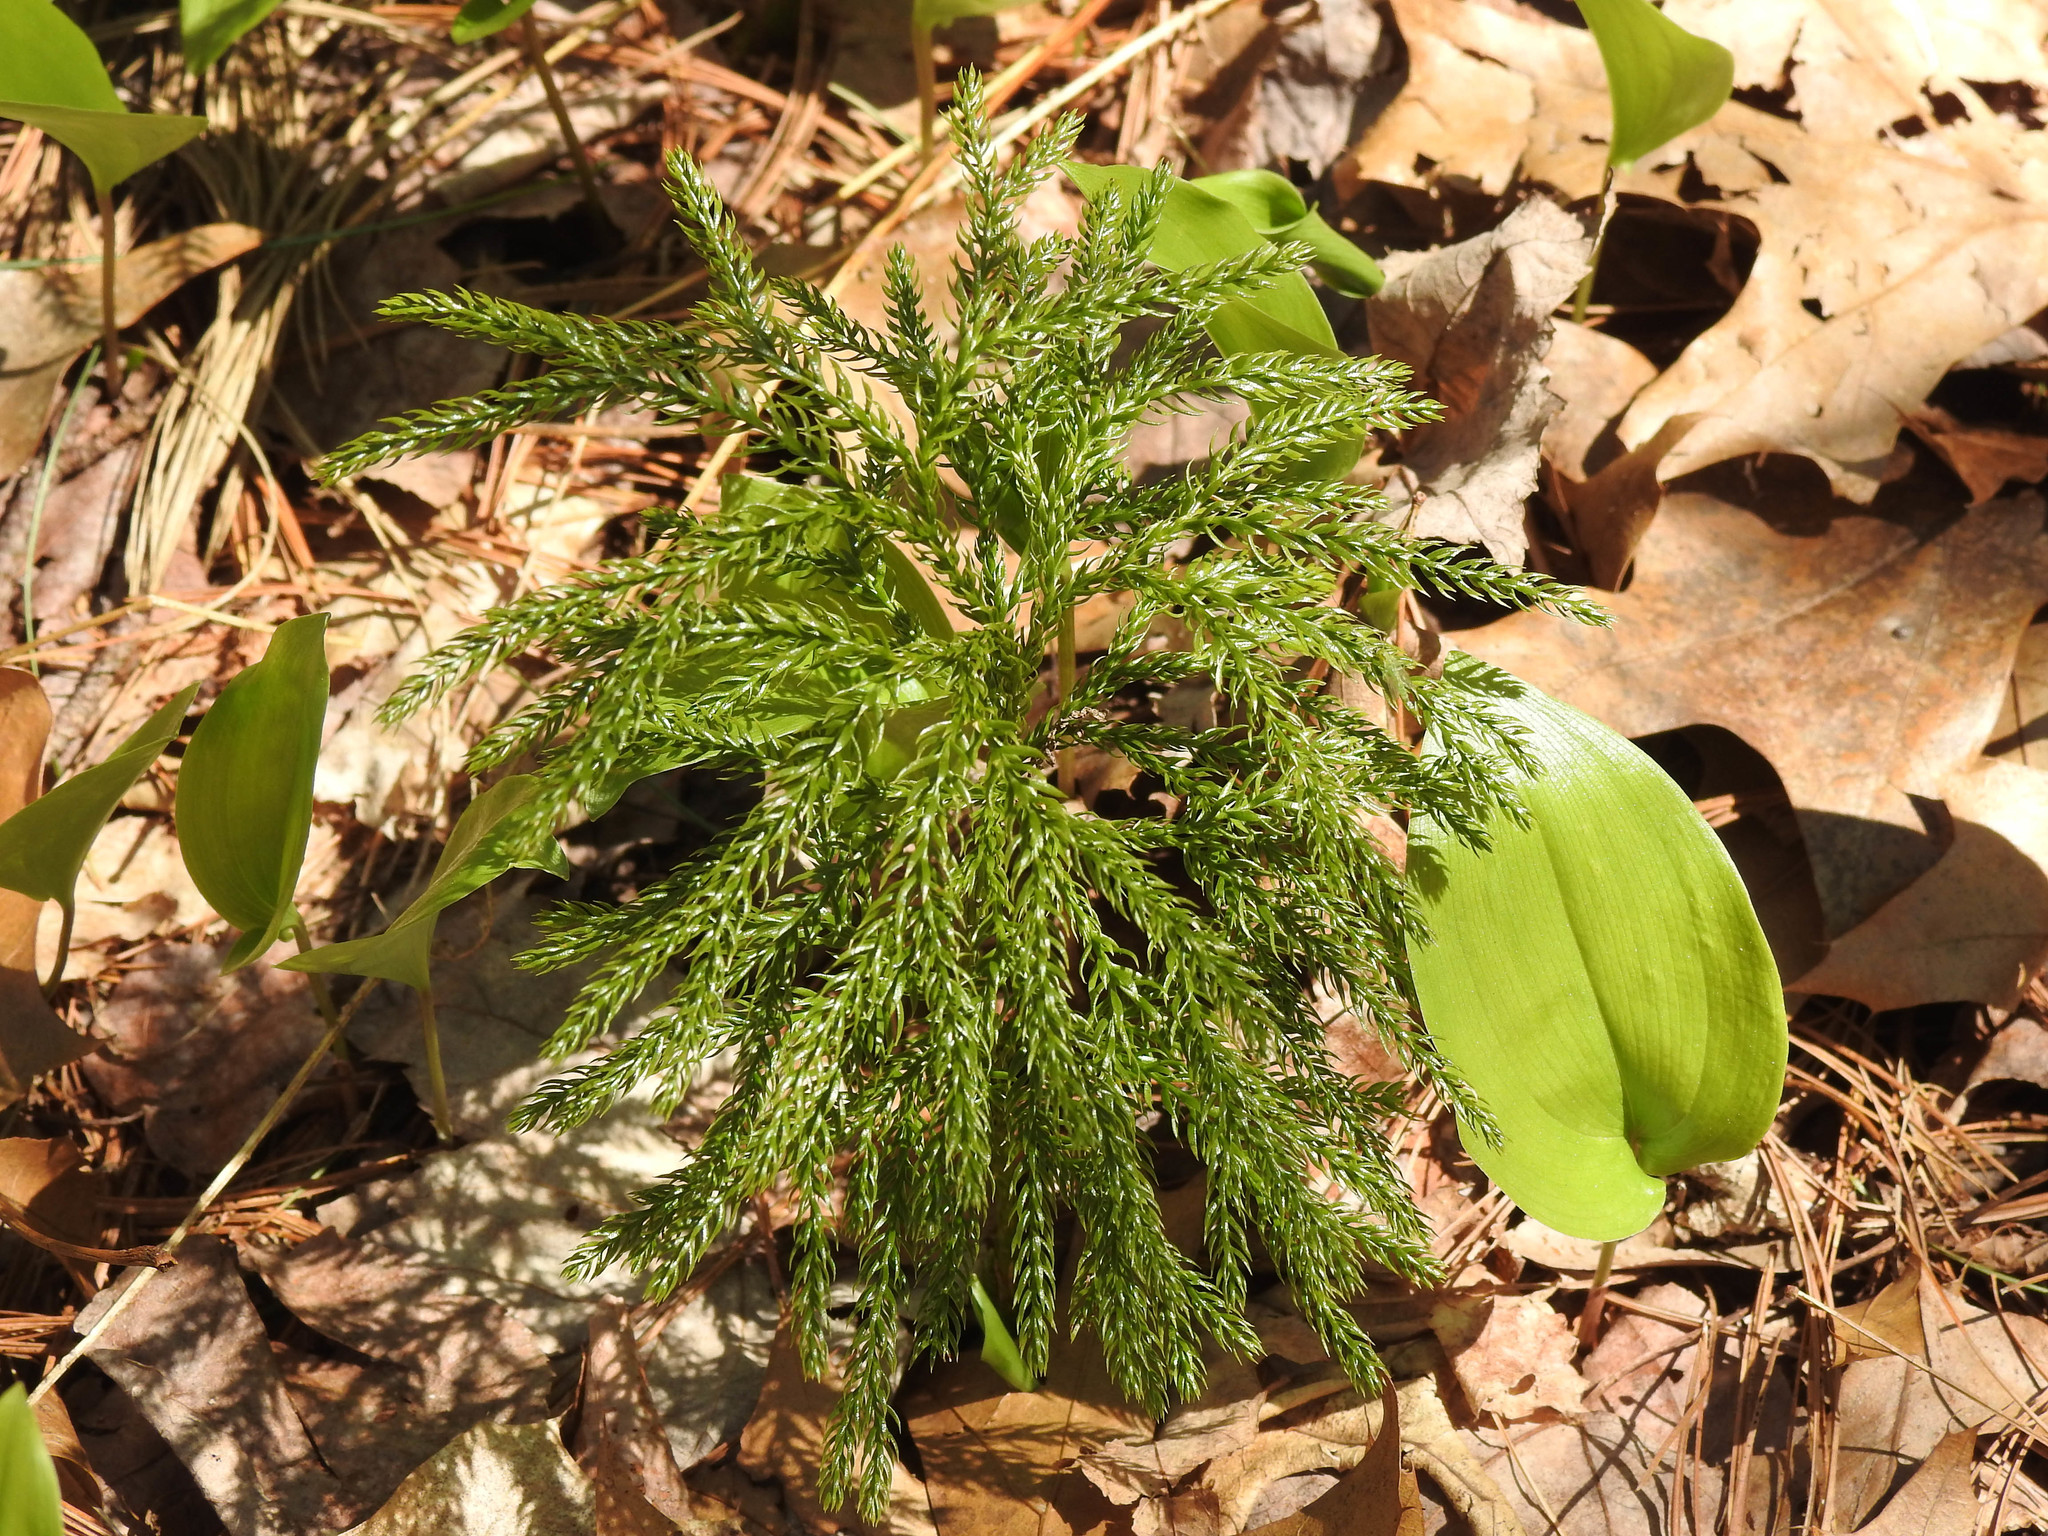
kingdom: Plantae
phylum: Tracheophyta
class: Lycopodiopsida
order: Lycopodiales
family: Lycopodiaceae
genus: Dendrolycopodium
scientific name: Dendrolycopodium obscurum
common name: Common ground-pine
